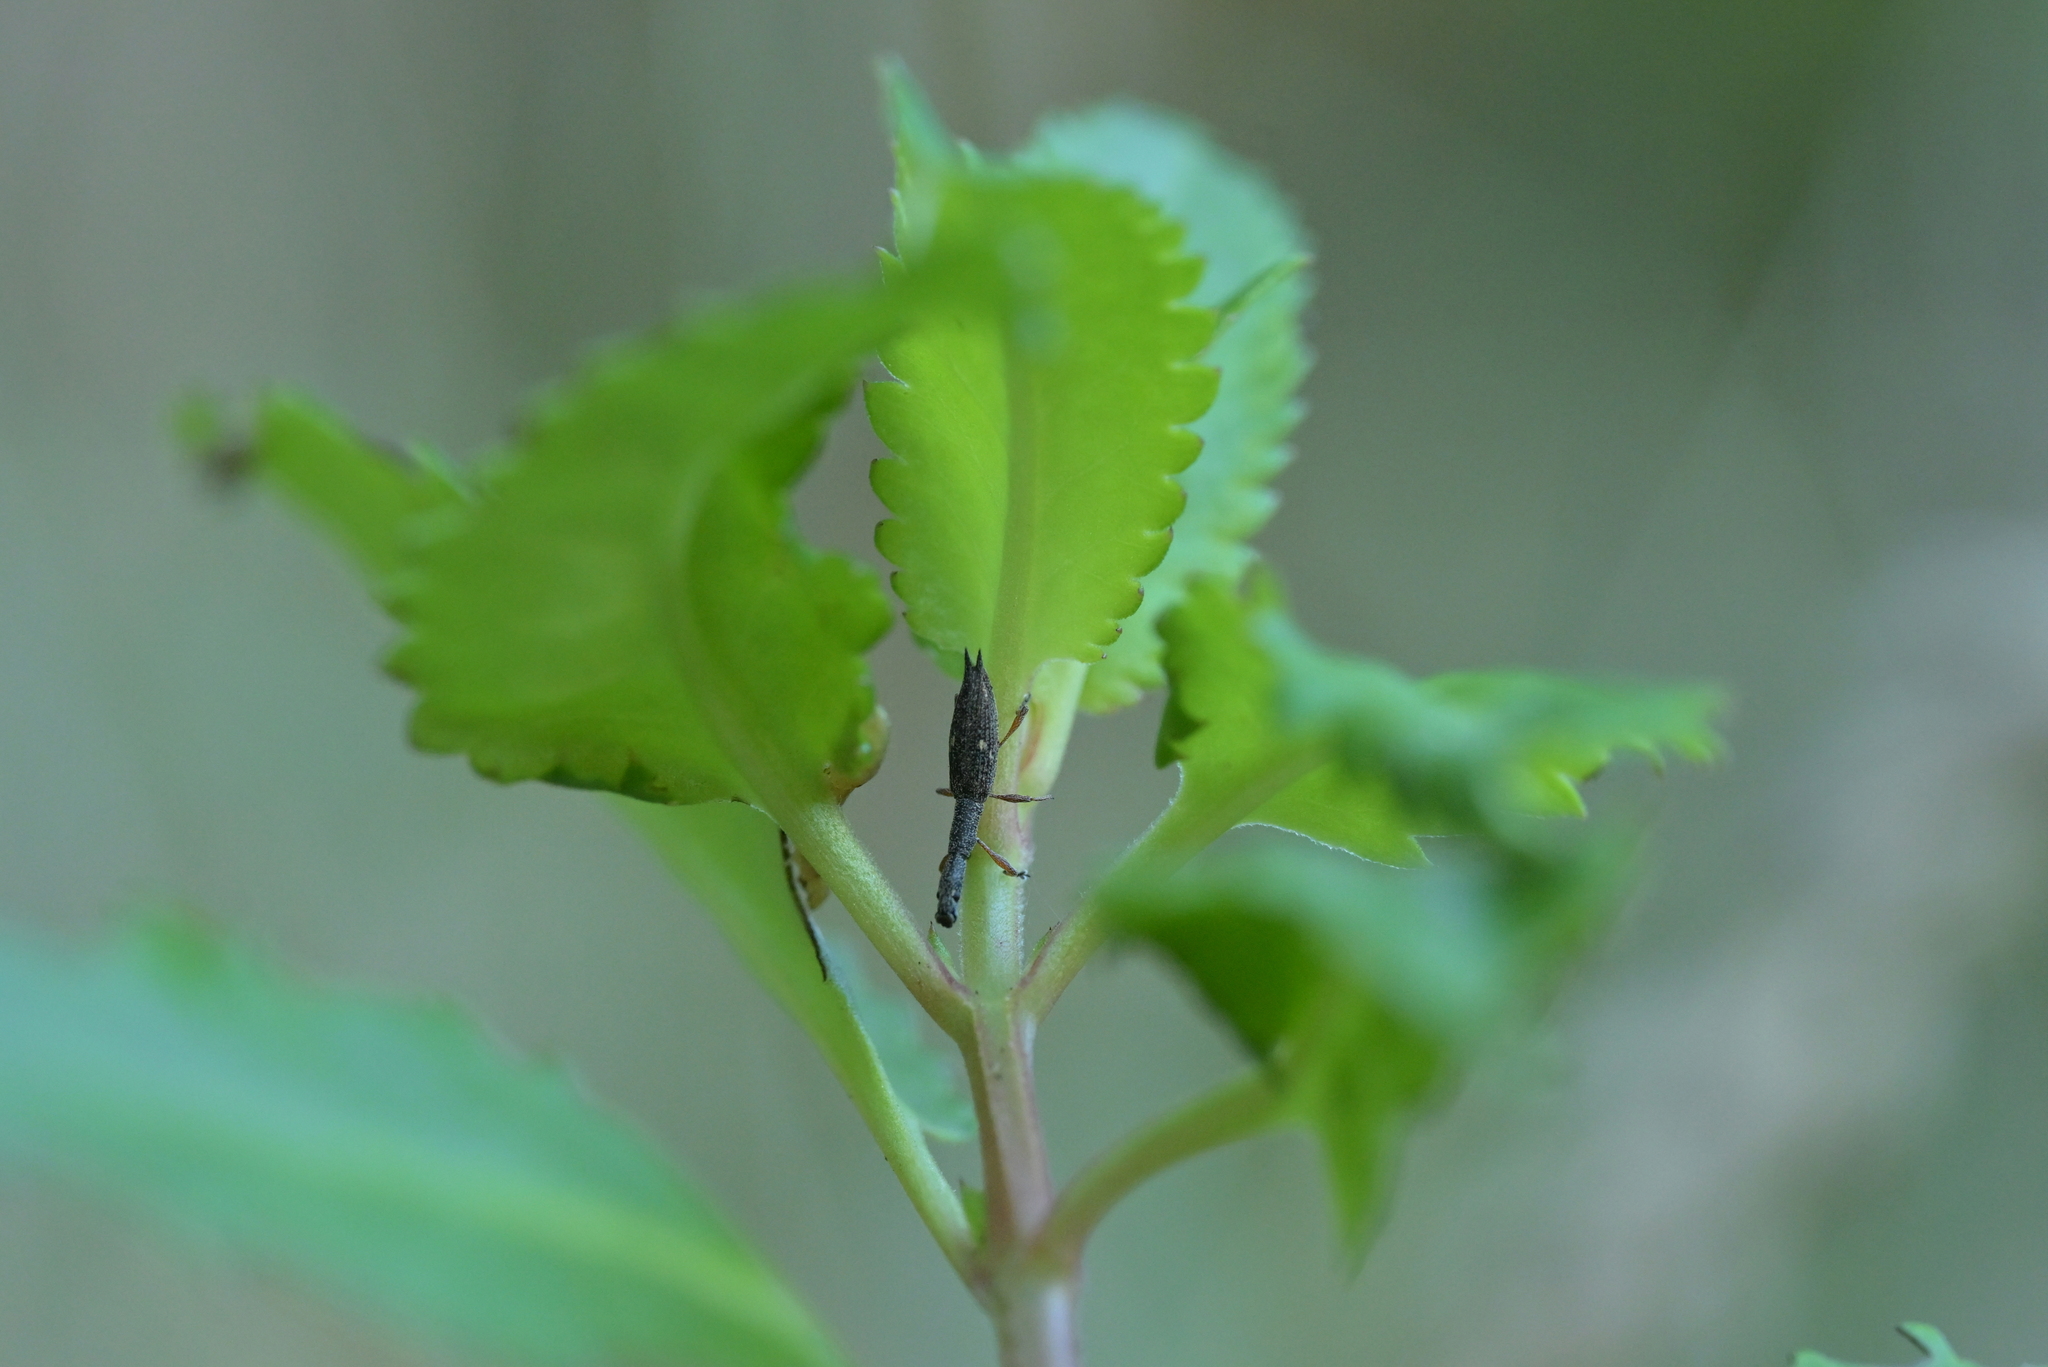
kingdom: Animalia
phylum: Arthropoda
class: Insecta
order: Coleoptera
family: Curculionidae
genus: Rhadinosomus
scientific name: Rhadinosomus acuminatus
